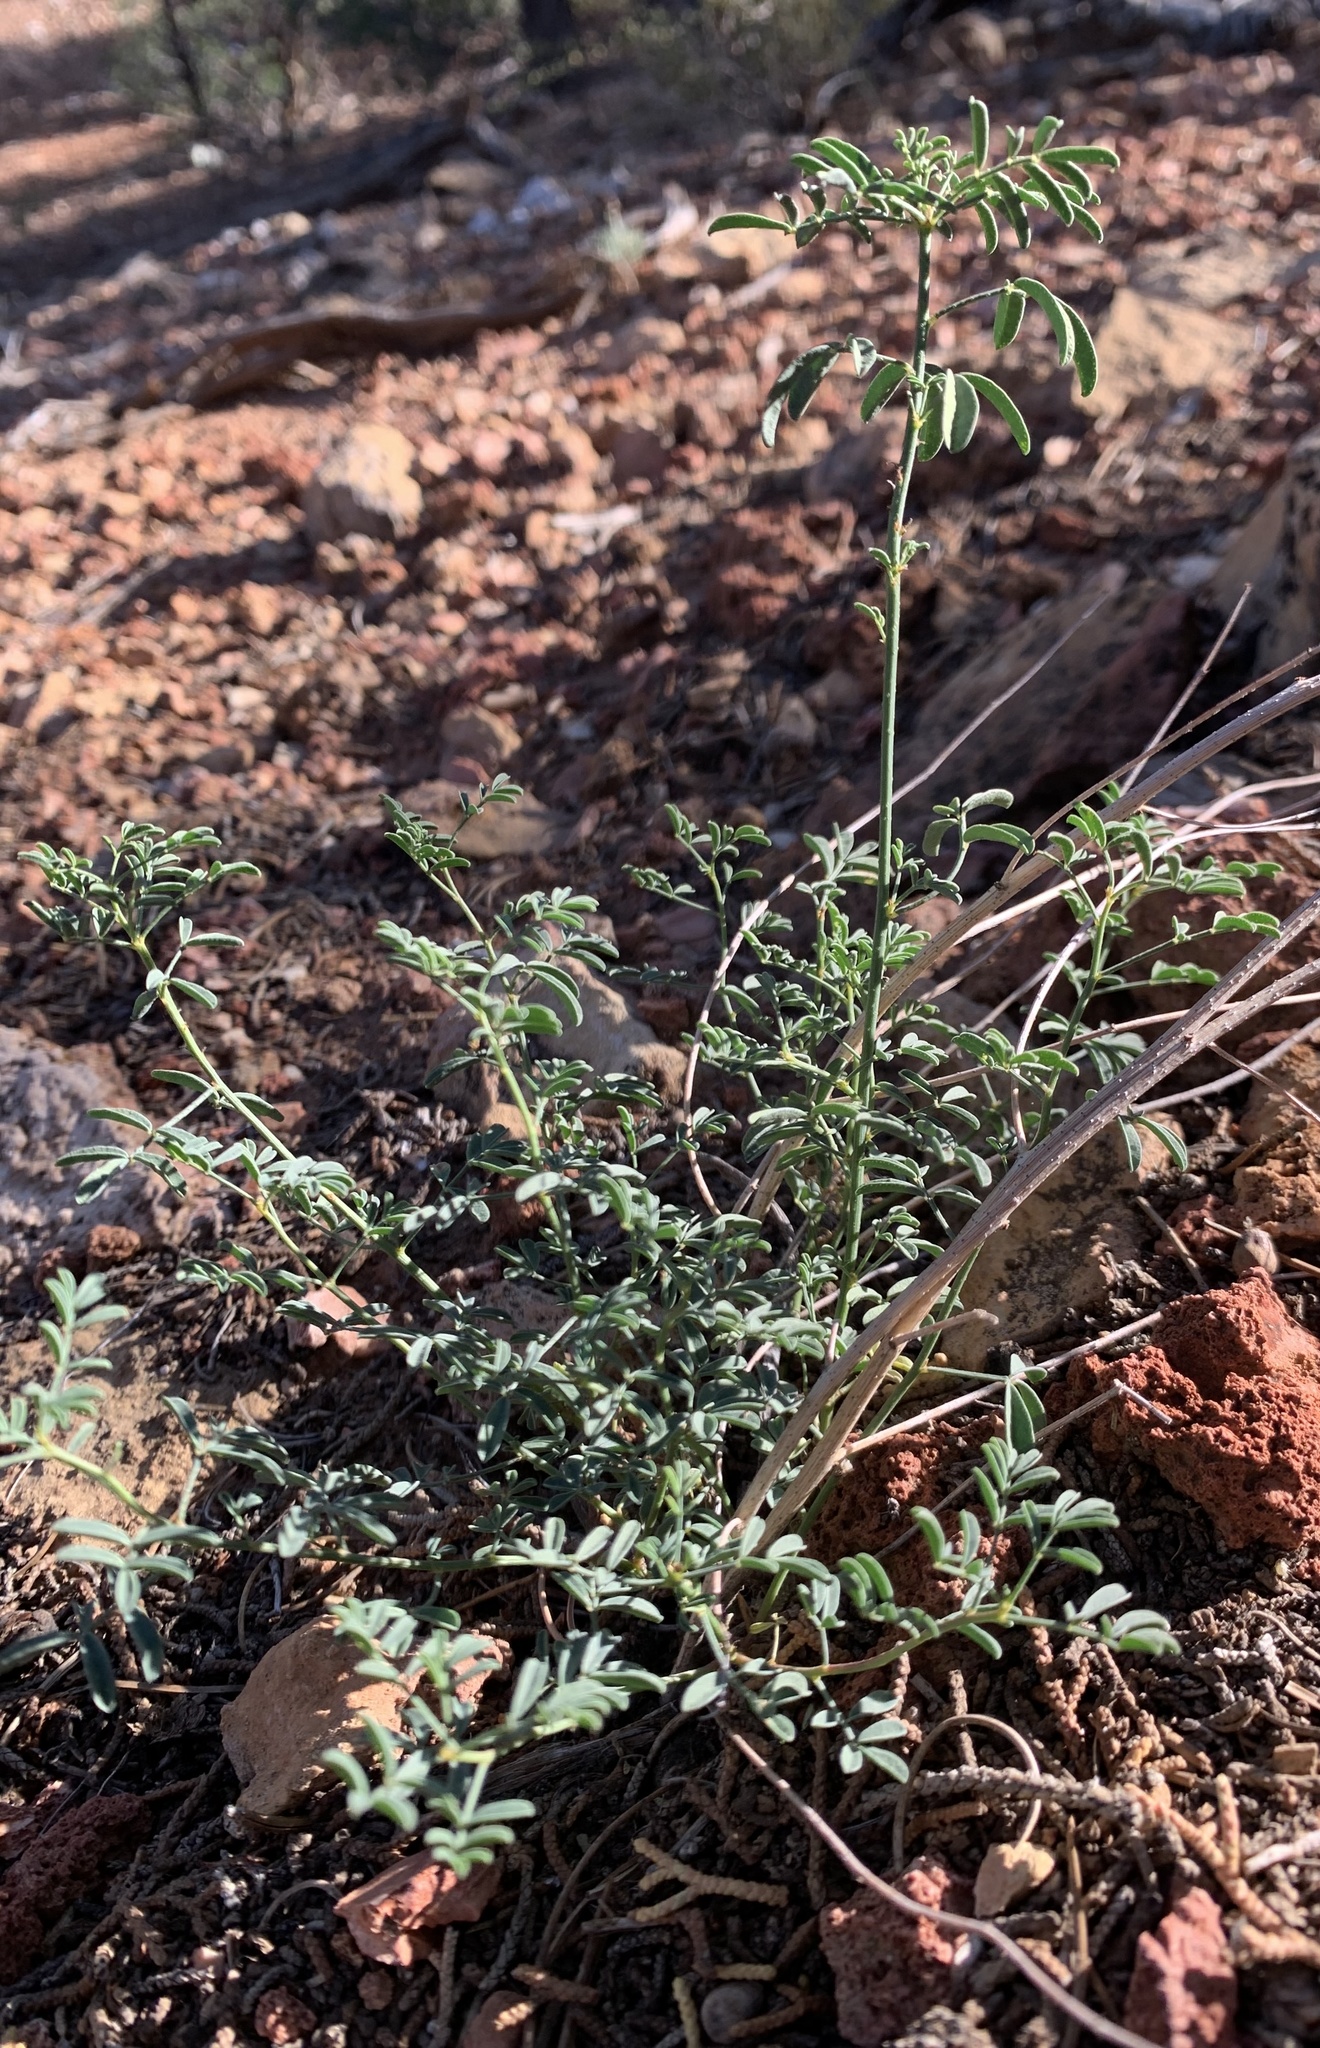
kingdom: Plantae
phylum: Tracheophyta
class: Magnoliopsida
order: Fabales
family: Fabaceae
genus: Dalea
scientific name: Dalea searlsiae
